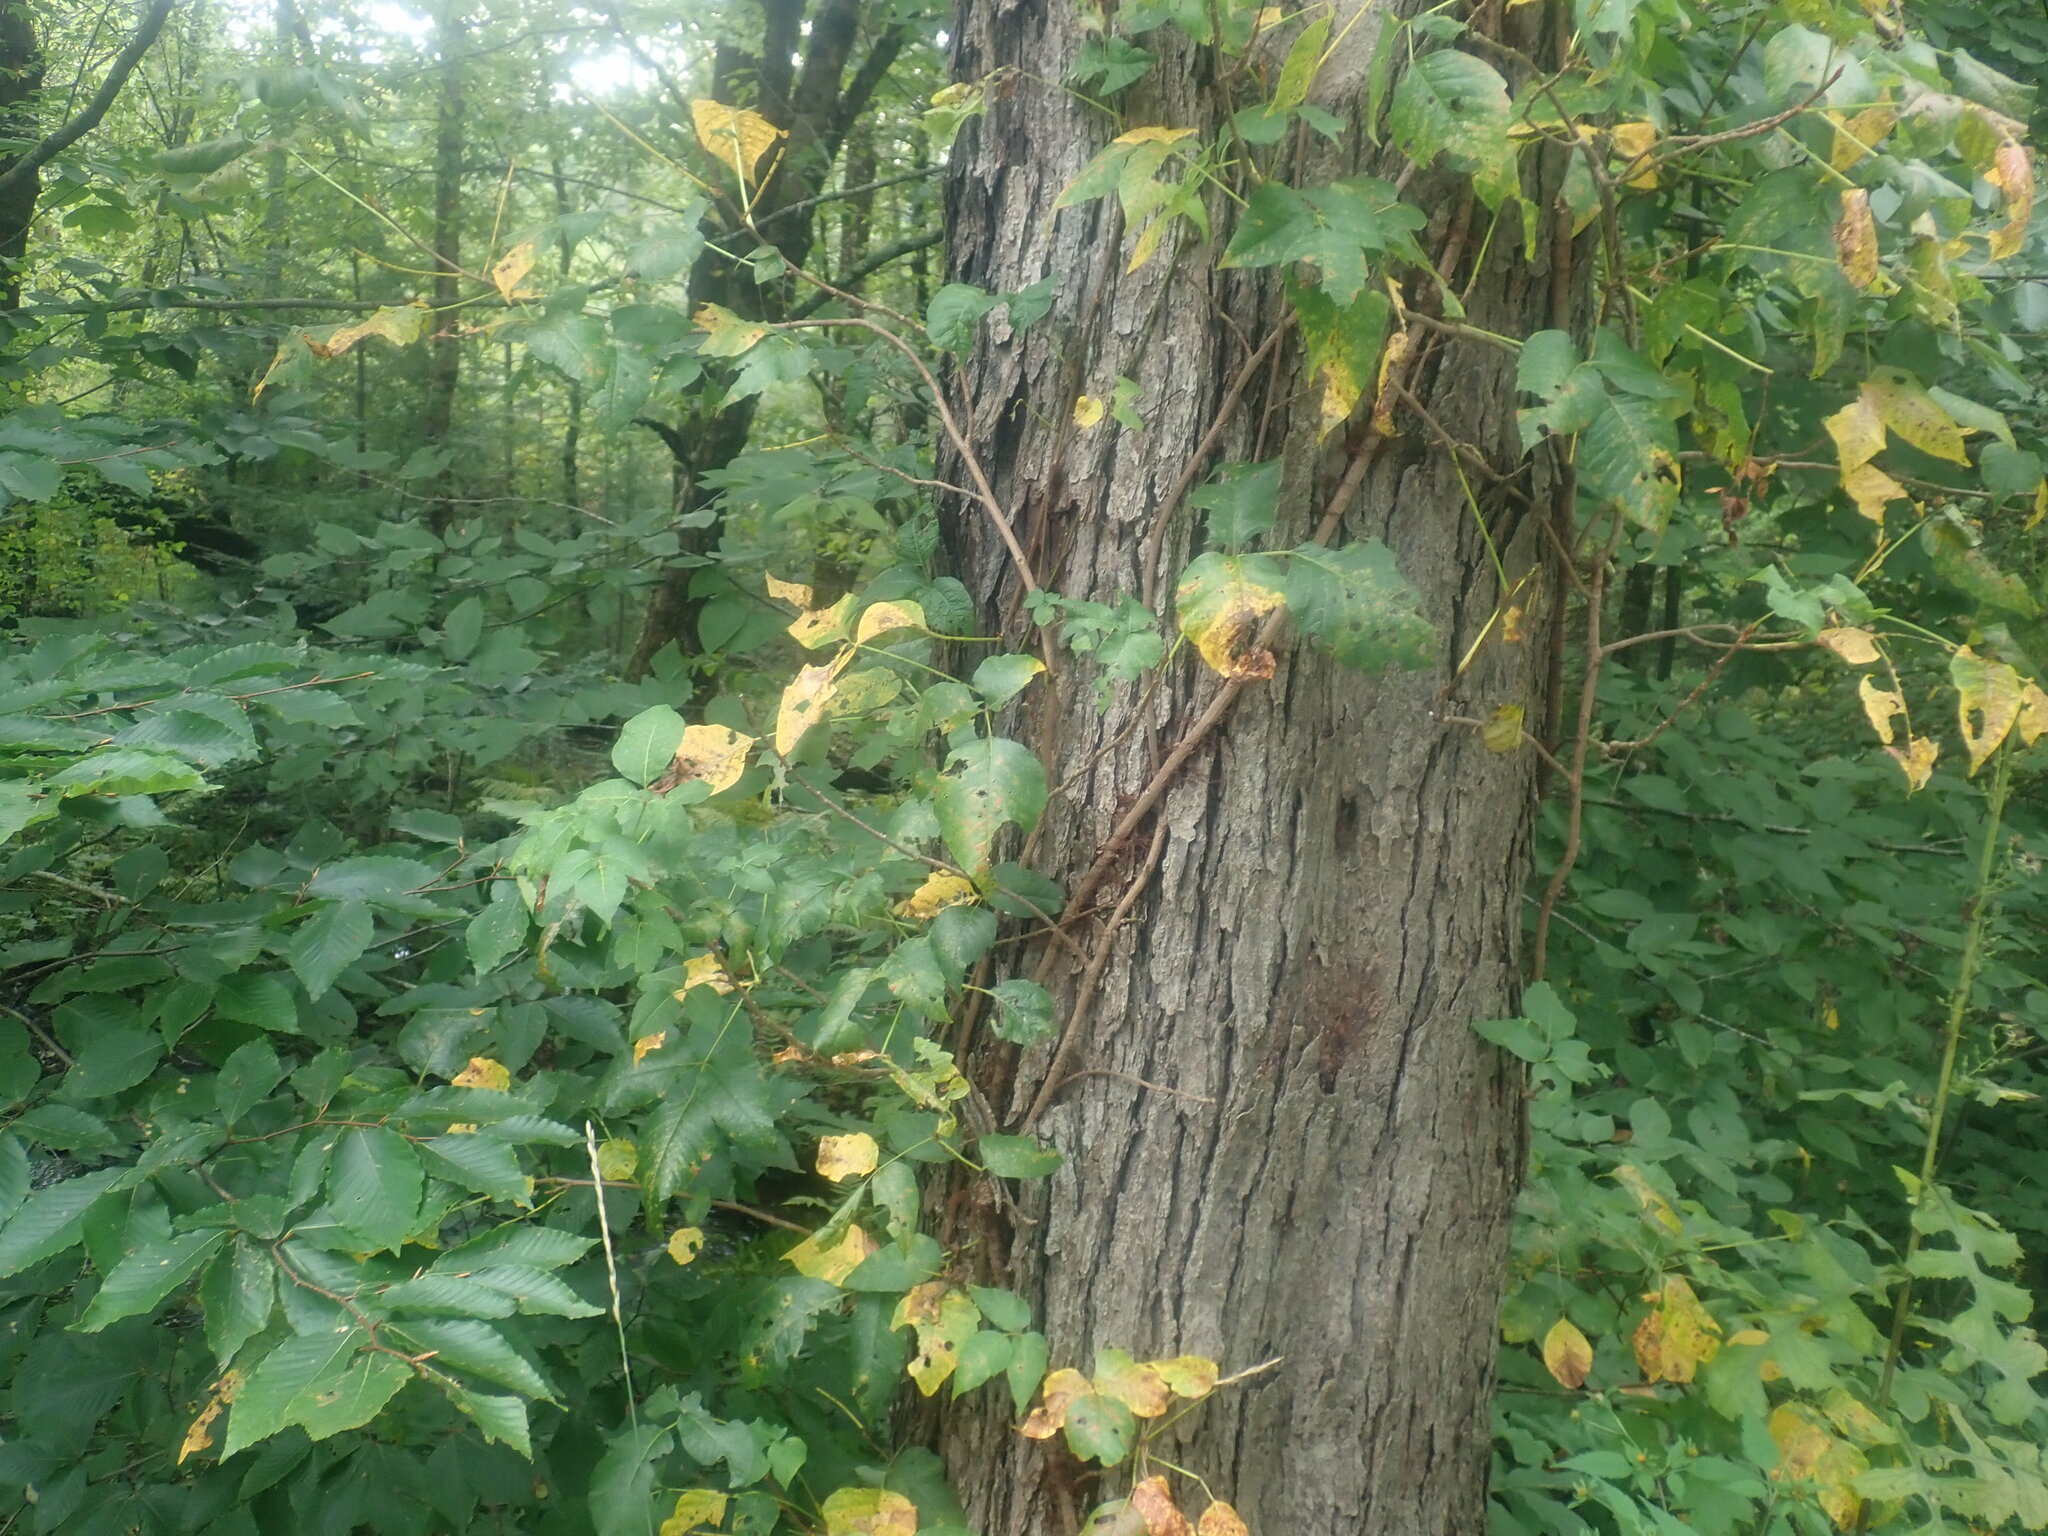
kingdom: Plantae
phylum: Tracheophyta
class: Magnoliopsida
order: Sapindales
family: Anacardiaceae
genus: Toxicodendron
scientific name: Toxicodendron radicans
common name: Poison ivy
